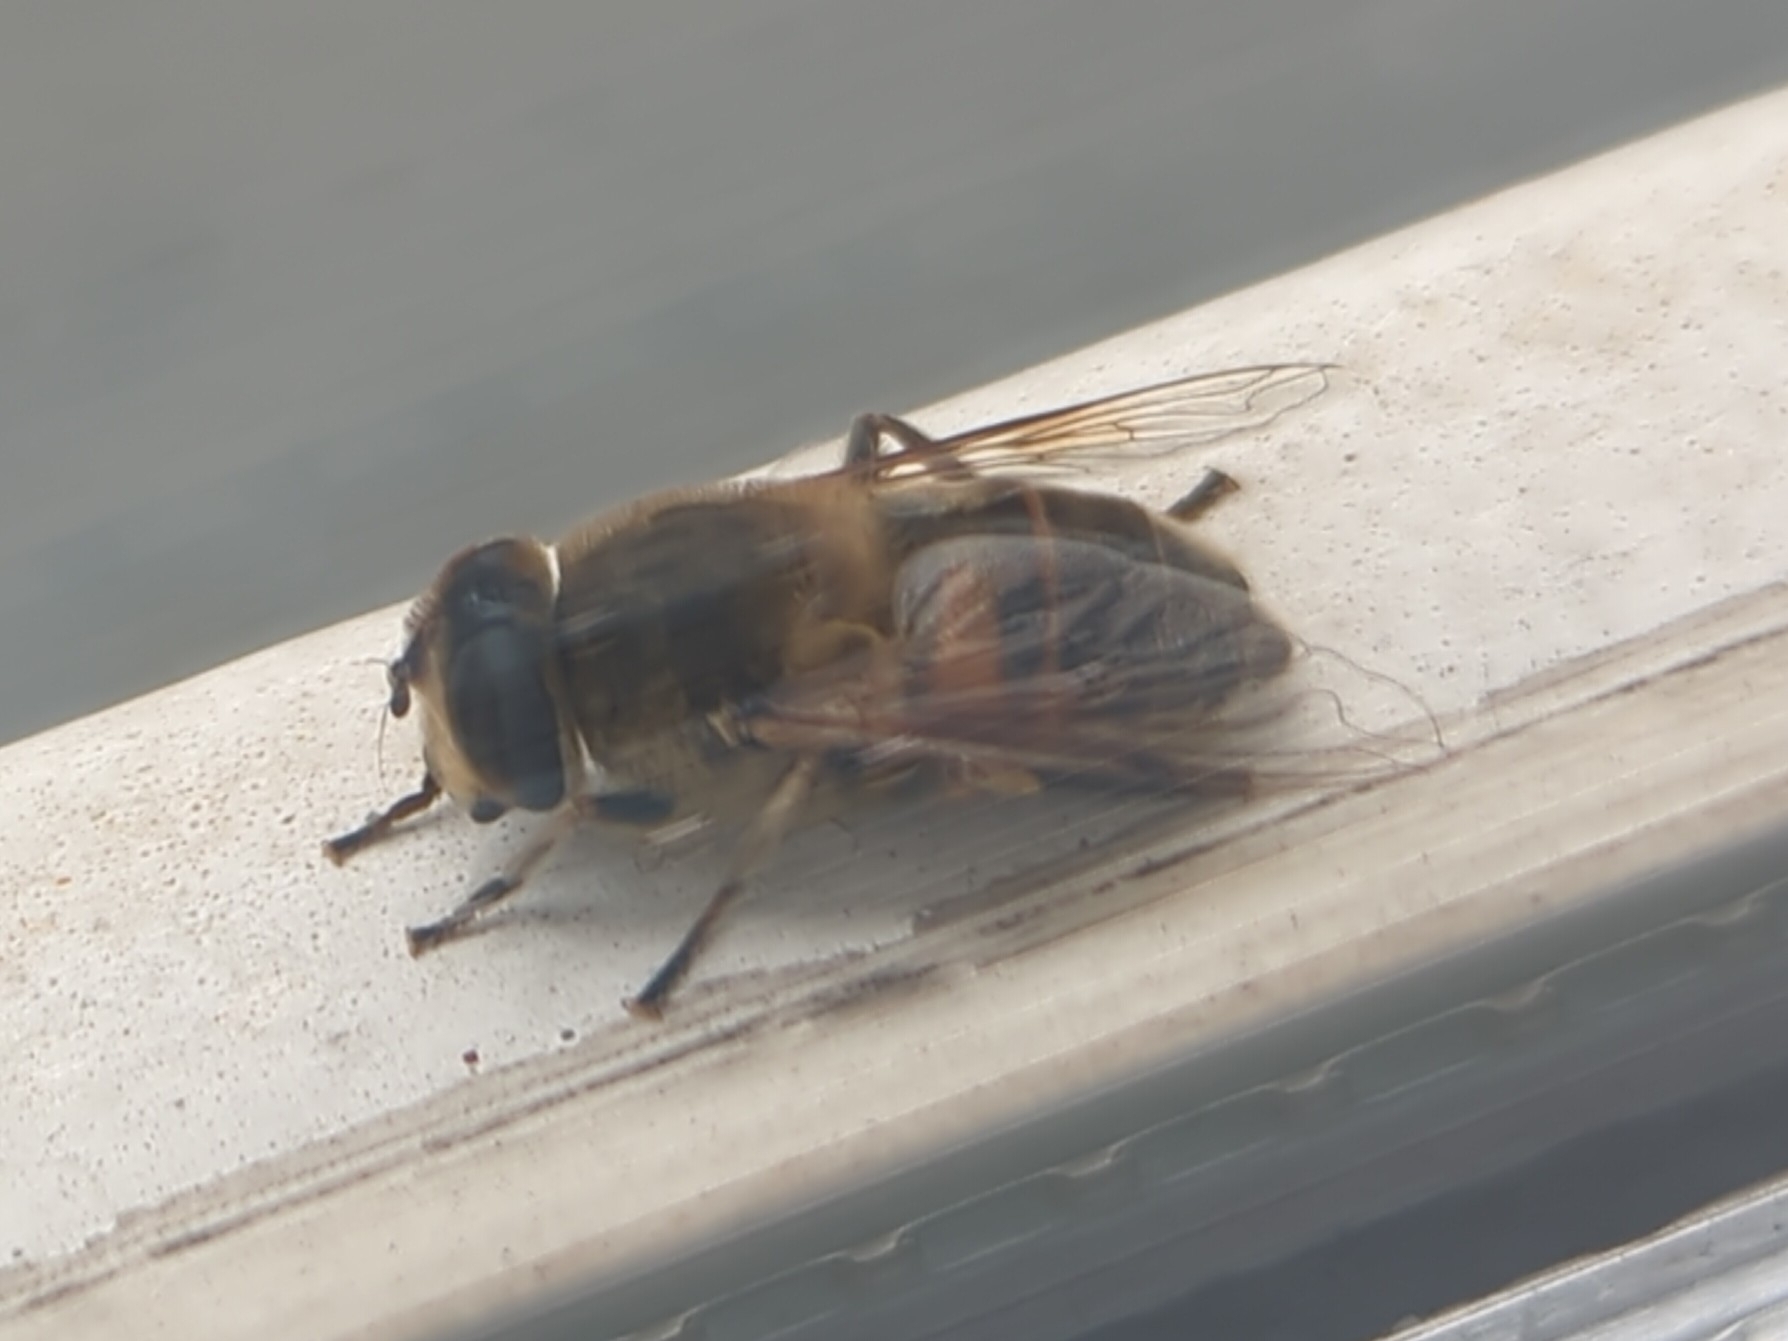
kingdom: Animalia
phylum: Arthropoda
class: Insecta
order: Diptera
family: Syrphidae
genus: Eristalis
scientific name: Eristalis tenax
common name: Drone fly
